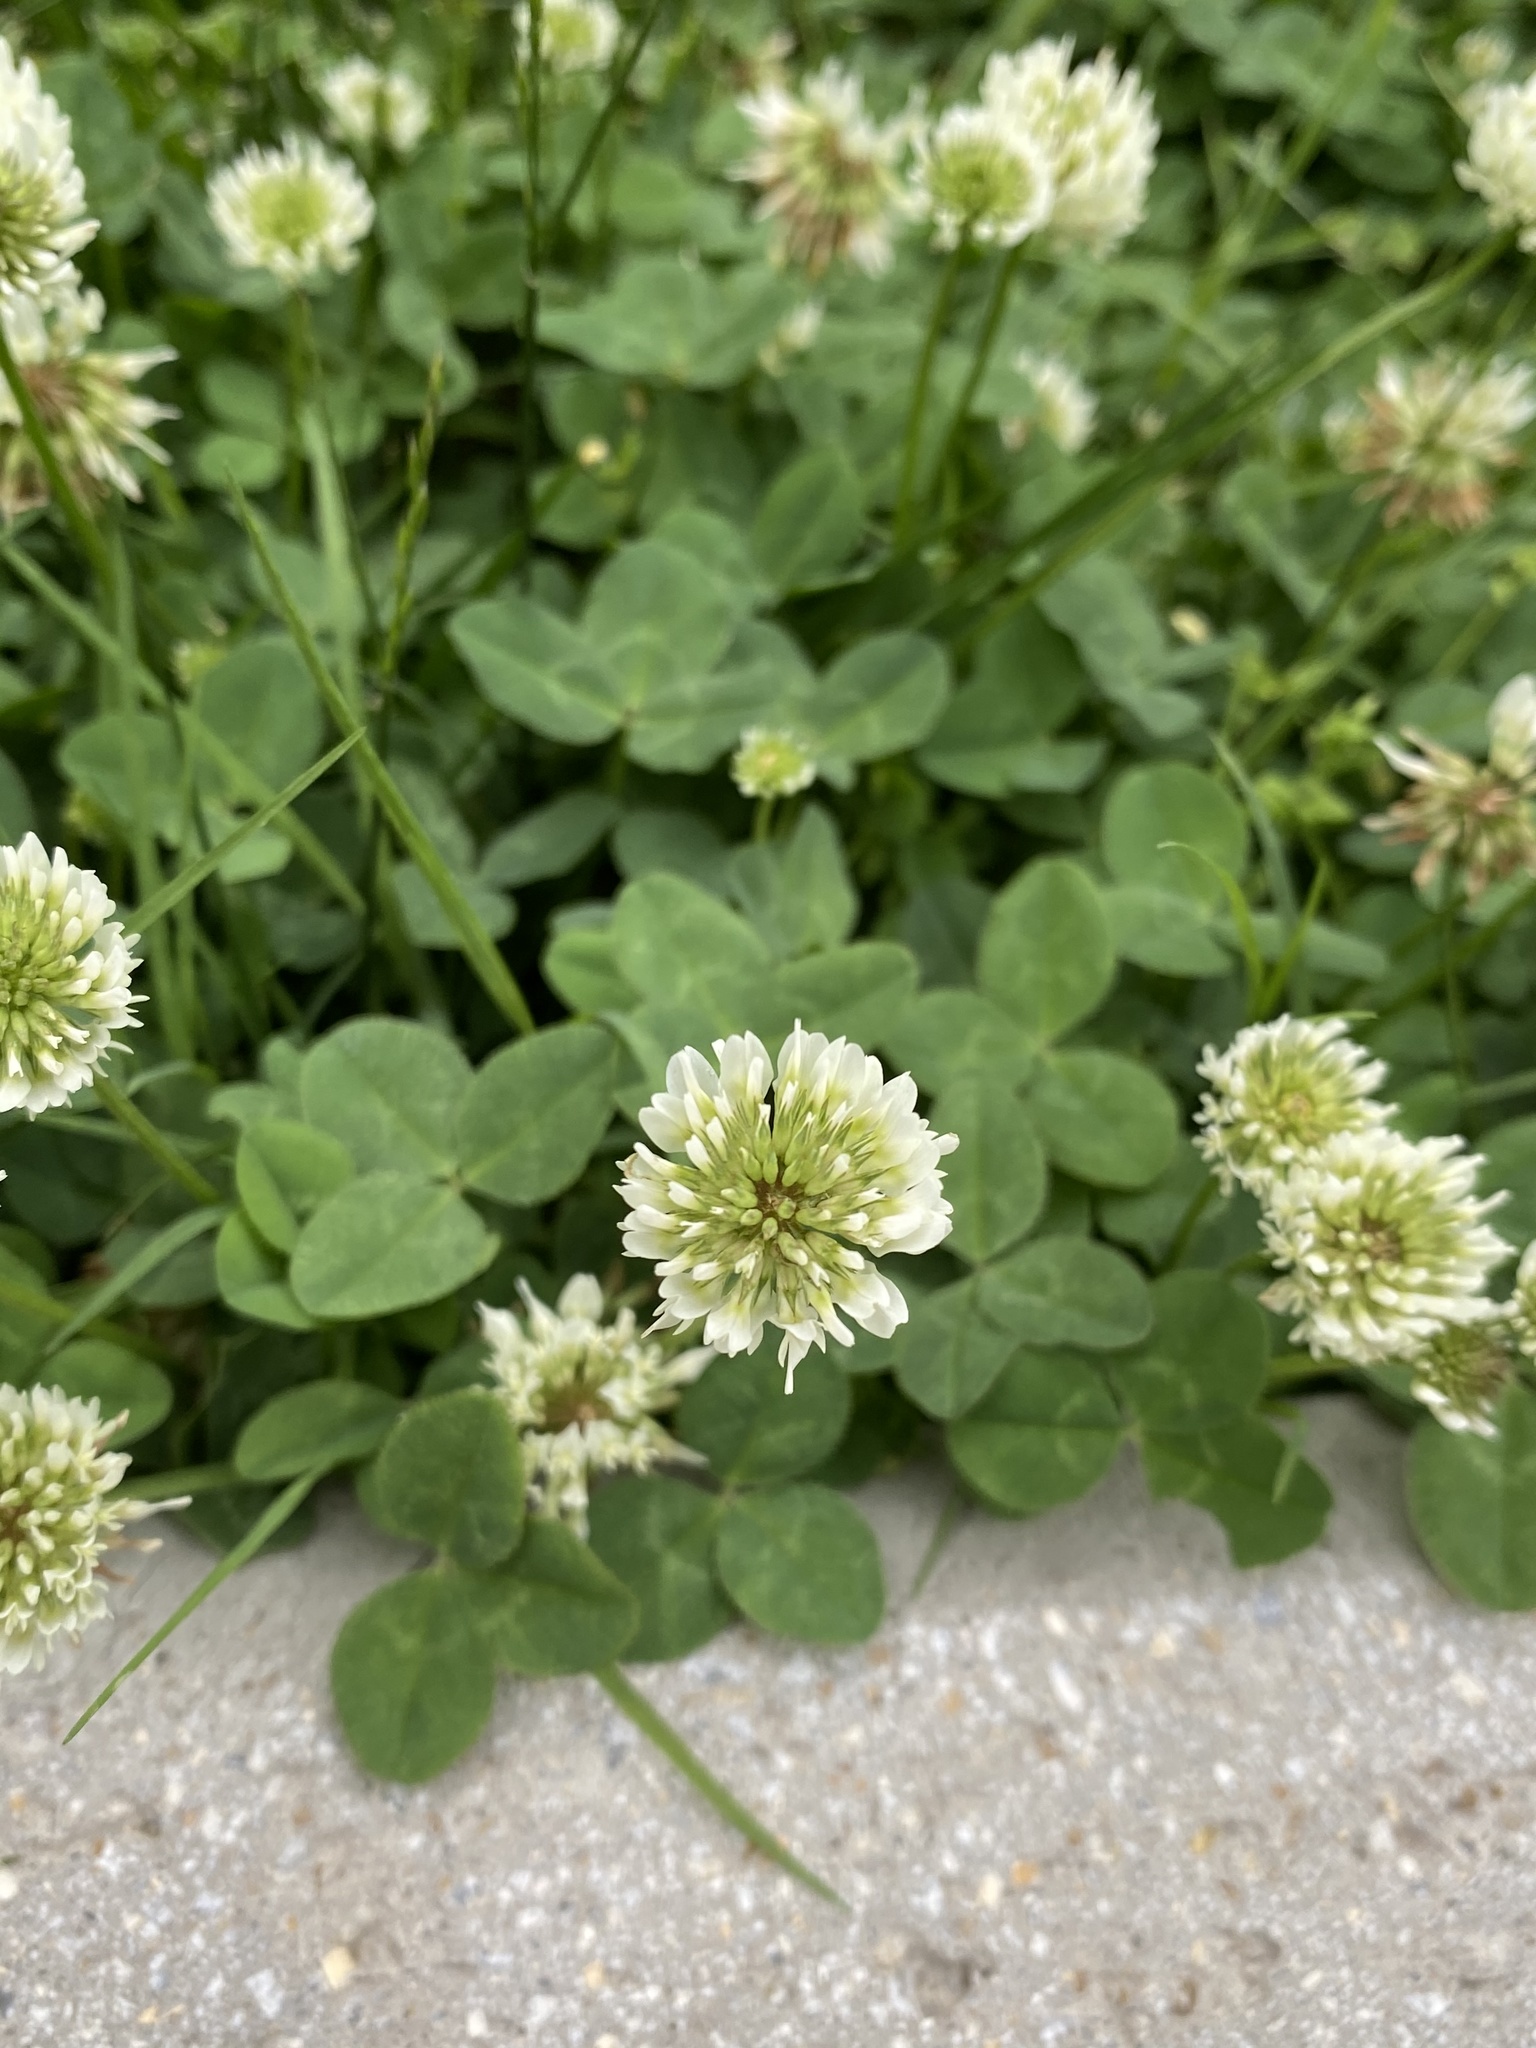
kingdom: Plantae
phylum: Tracheophyta
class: Magnoliopsida
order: Fabales
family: Fabaceae
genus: Trifolium
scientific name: Trifolium repens
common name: White clover
